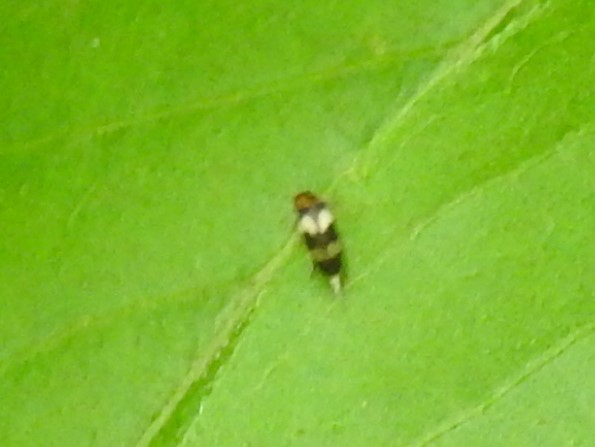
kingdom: Animalia
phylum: Arthropoda
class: Insecta
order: Coleoptera
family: Mordellidae
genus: Mordellistena
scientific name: Mordellistena trifasciata
